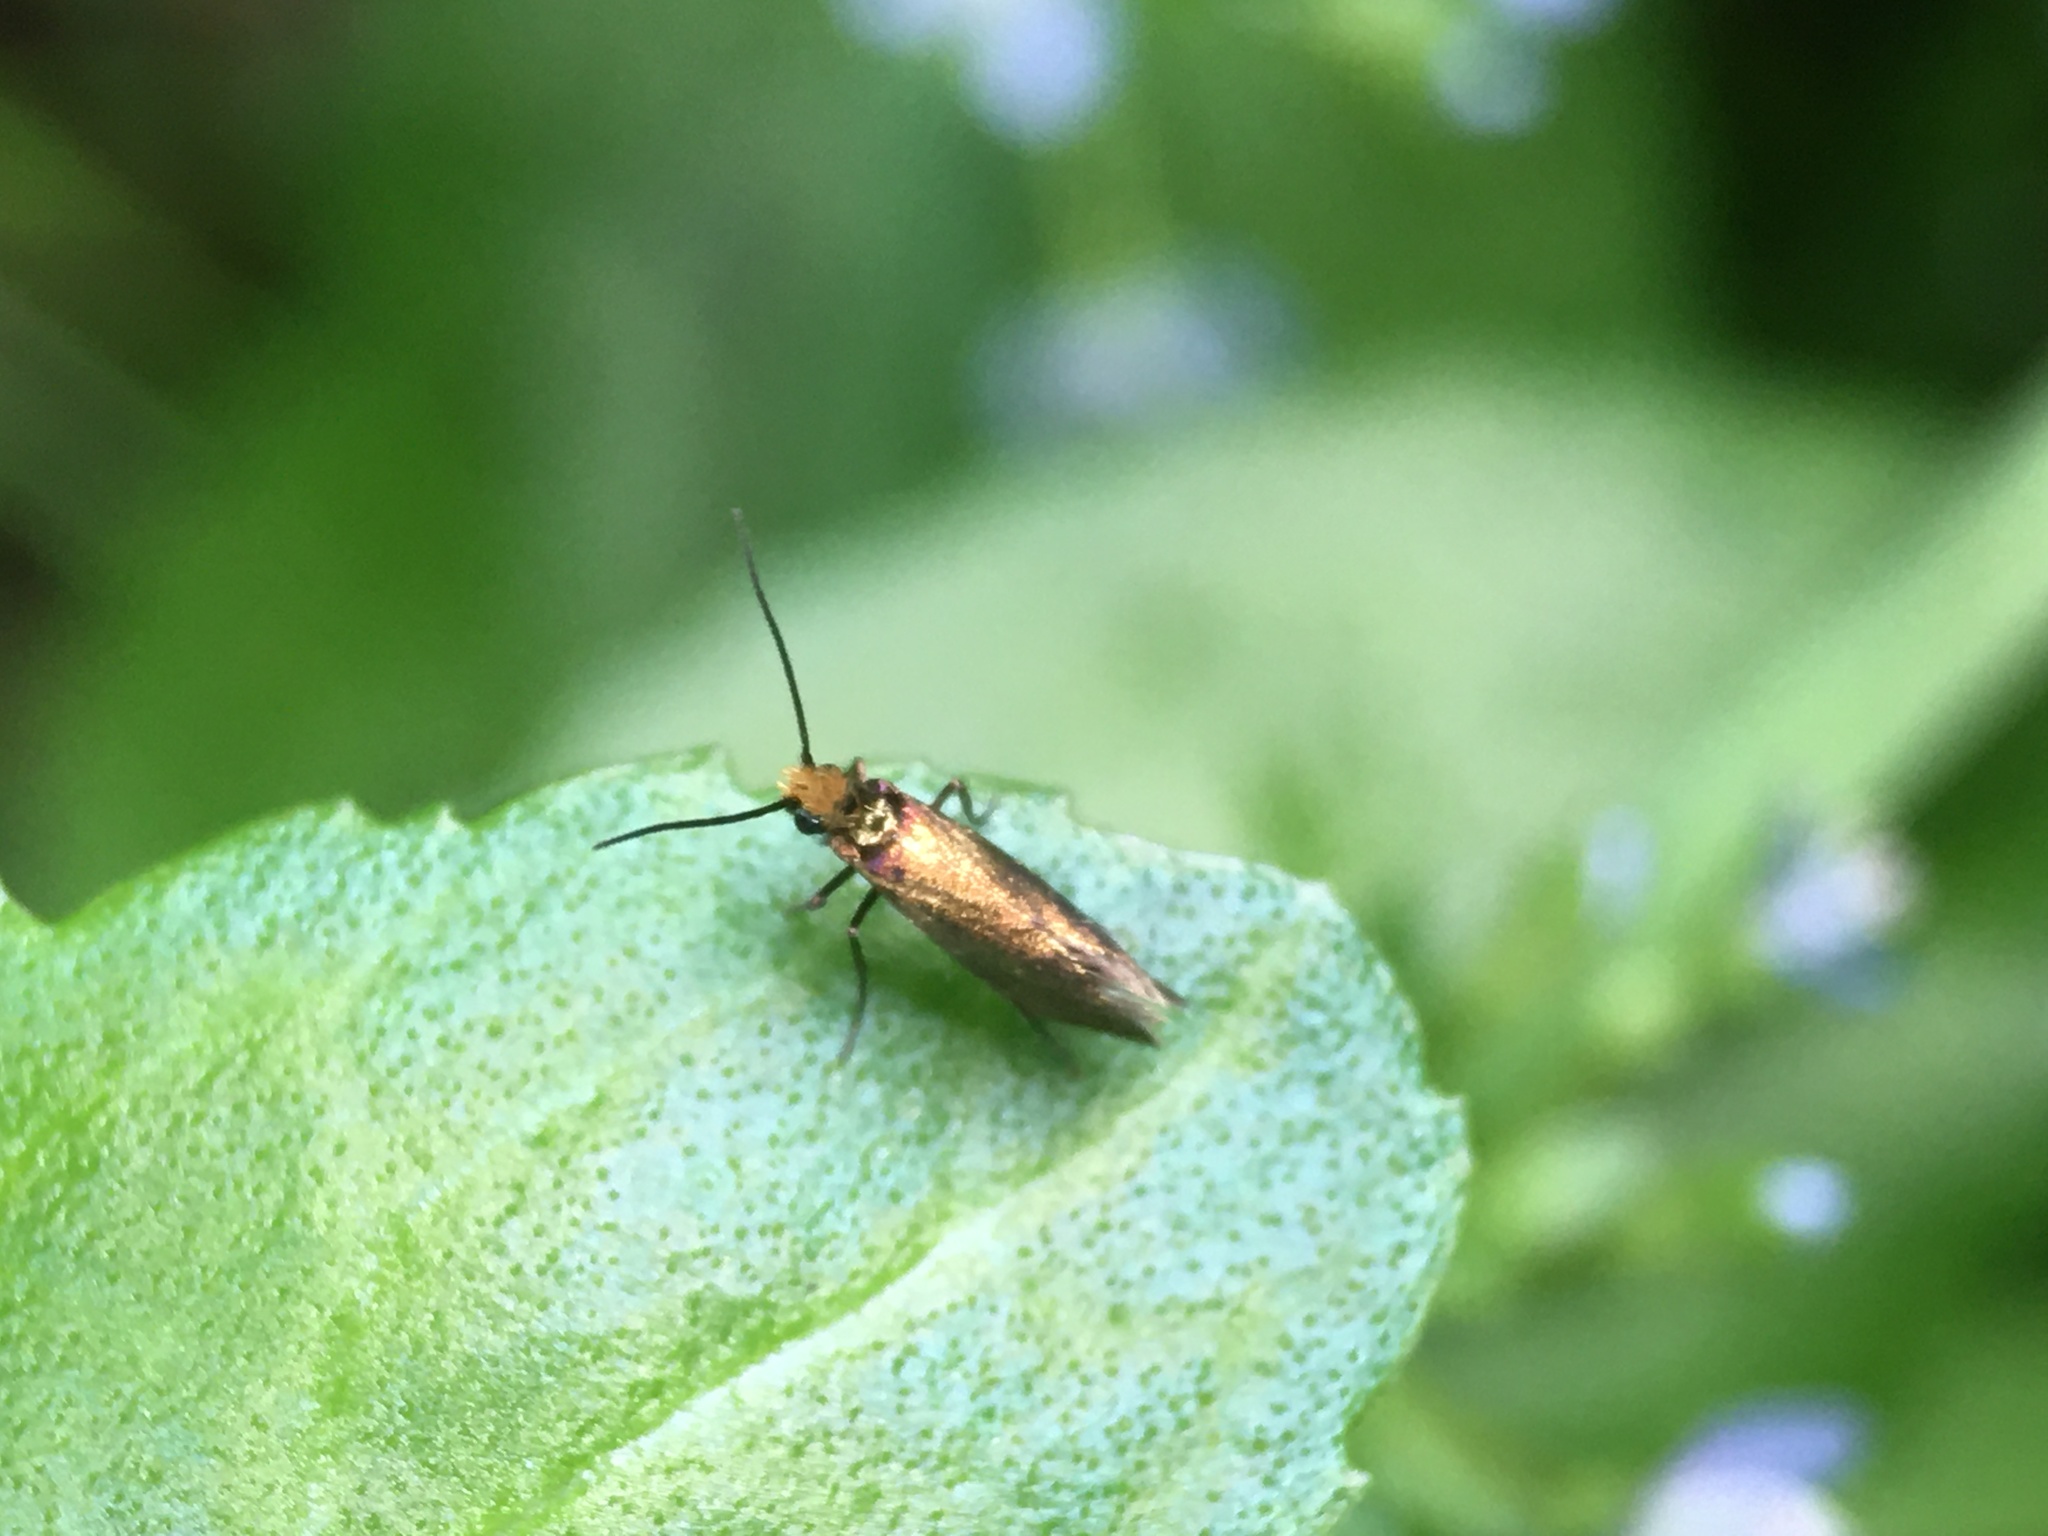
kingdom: Animalia
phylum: Arthropoda
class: Insecta
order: Lepidoptera
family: Micropterigidae
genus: Micropterix
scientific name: Micropterix calthella
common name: Plain gold
